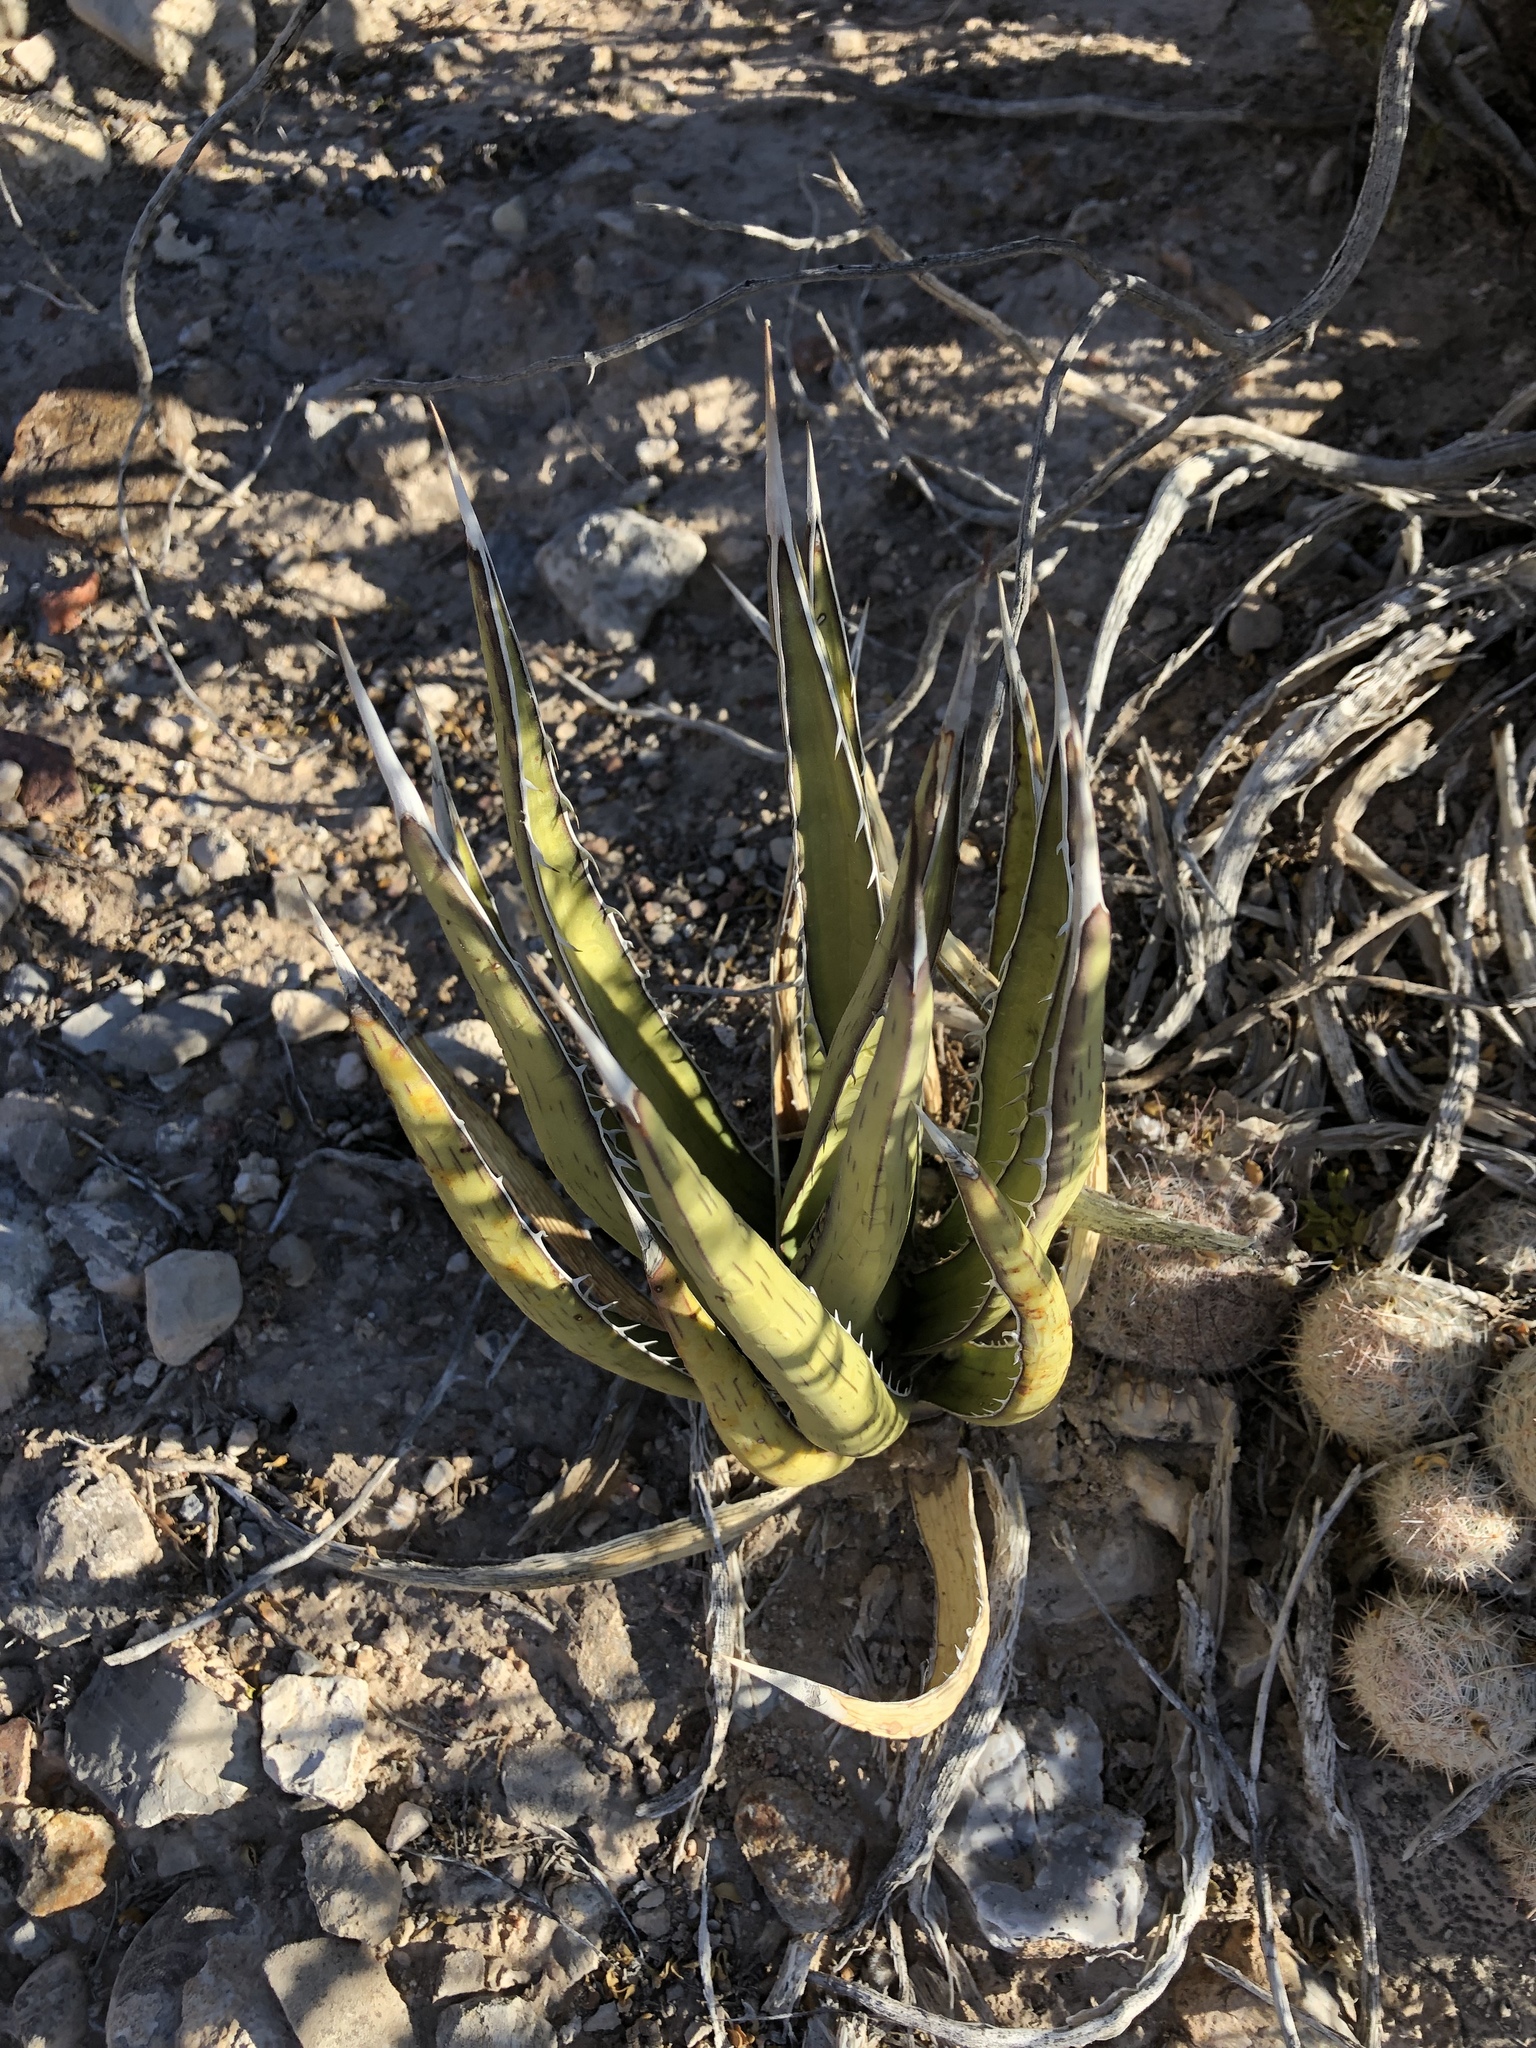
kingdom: Plantae
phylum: Tracheophyta
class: Liliopsida
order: Asparagales
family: Asparagaceae
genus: Agave
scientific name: Agave lechuguilla
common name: Lecheguilla agave
